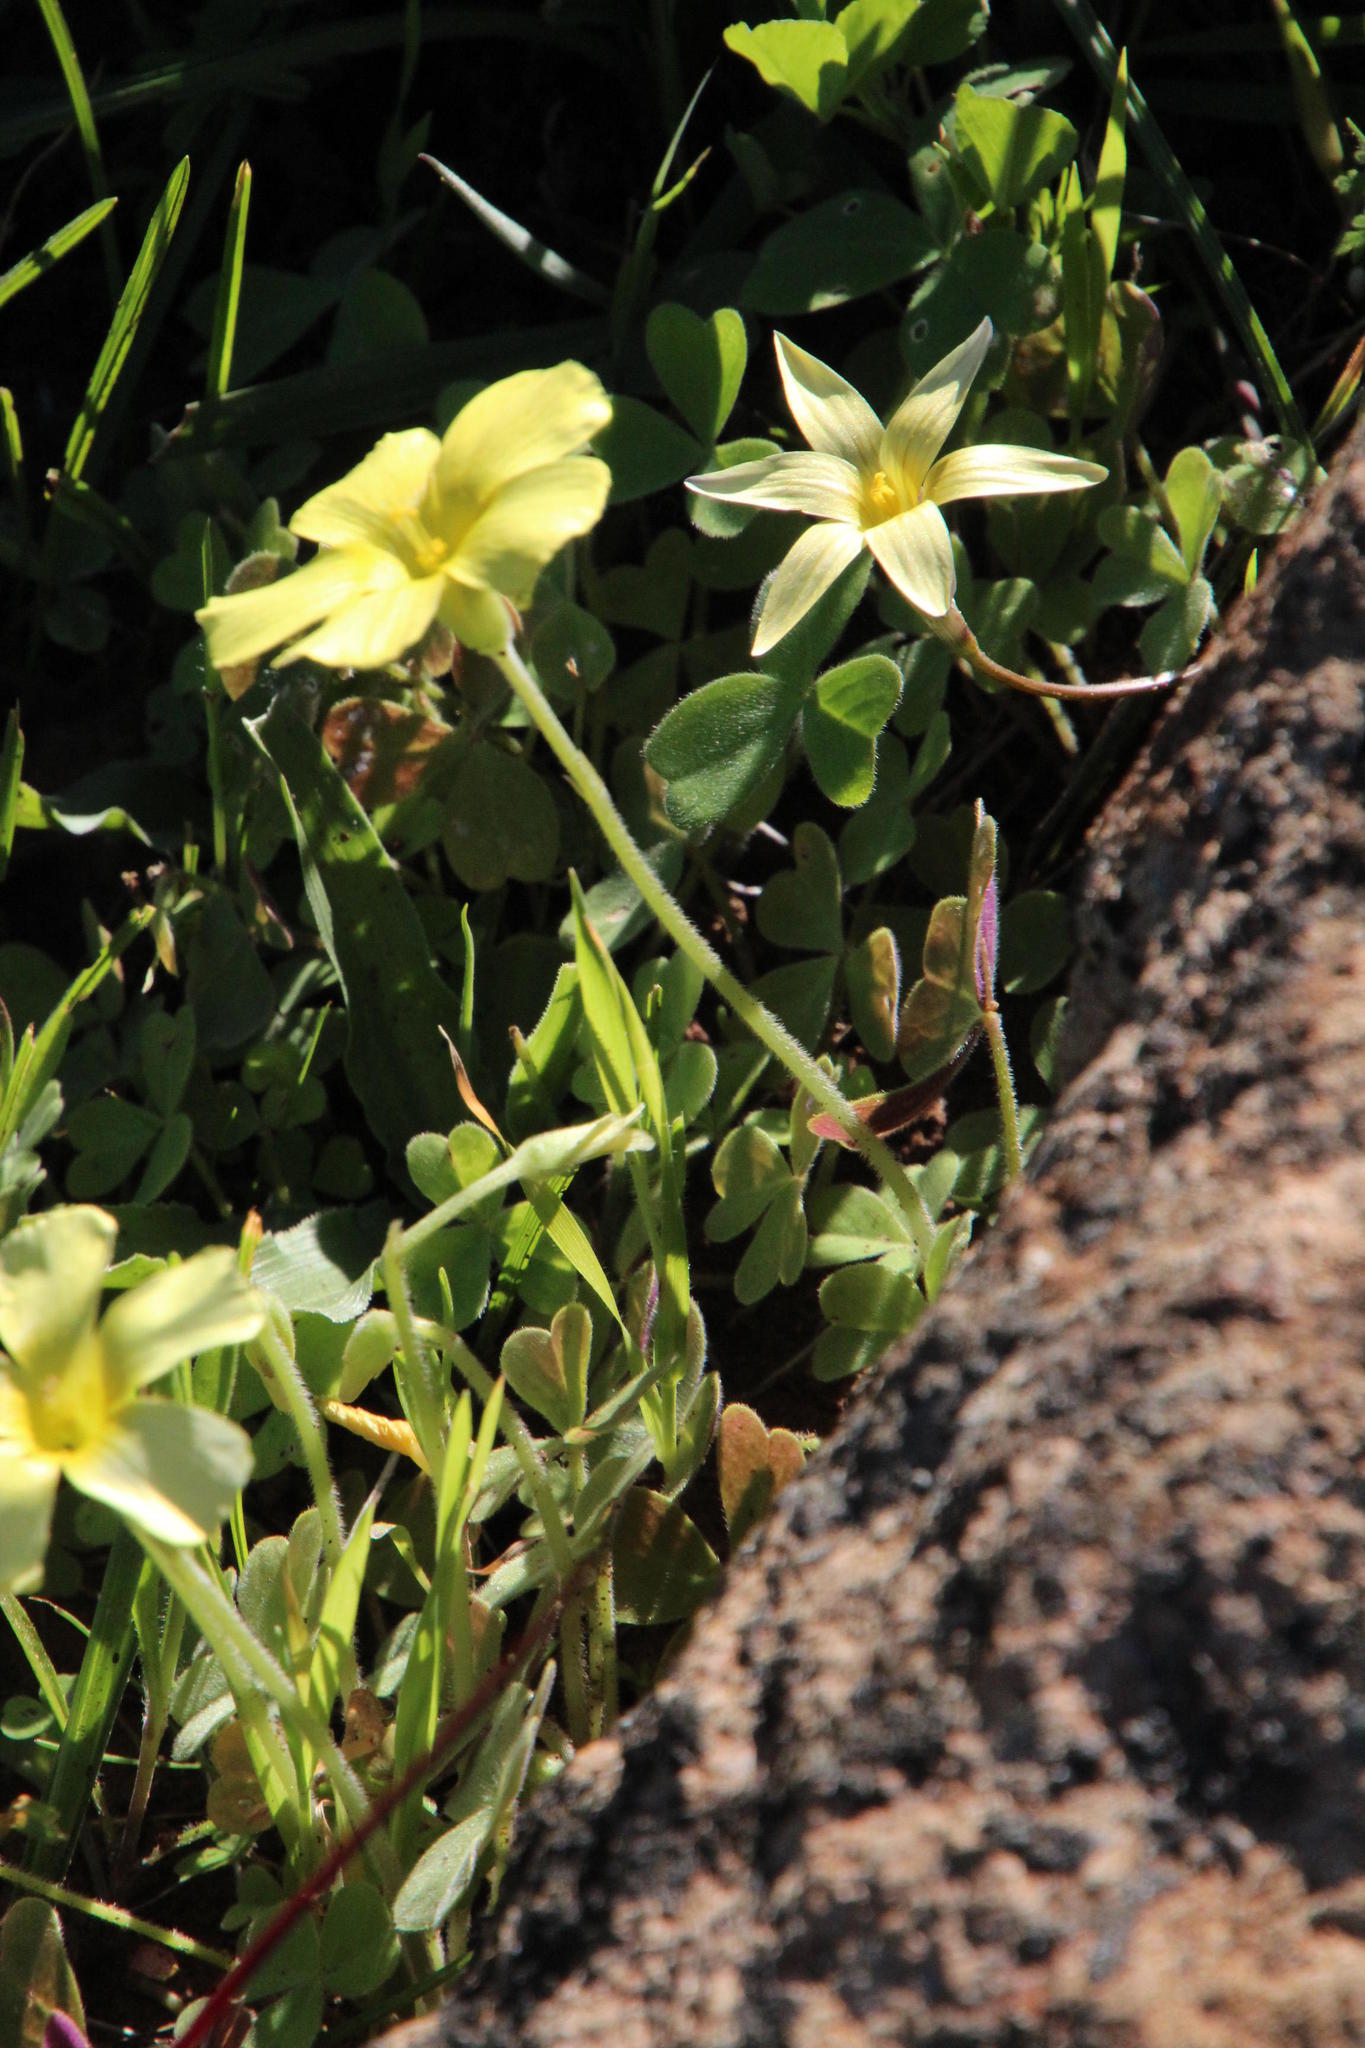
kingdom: Plantae
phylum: Tracheophyta
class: Magnoliopsida
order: Oxalidales
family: Oxalidaceae
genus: Oxalis
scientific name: Oxalis obtusa
